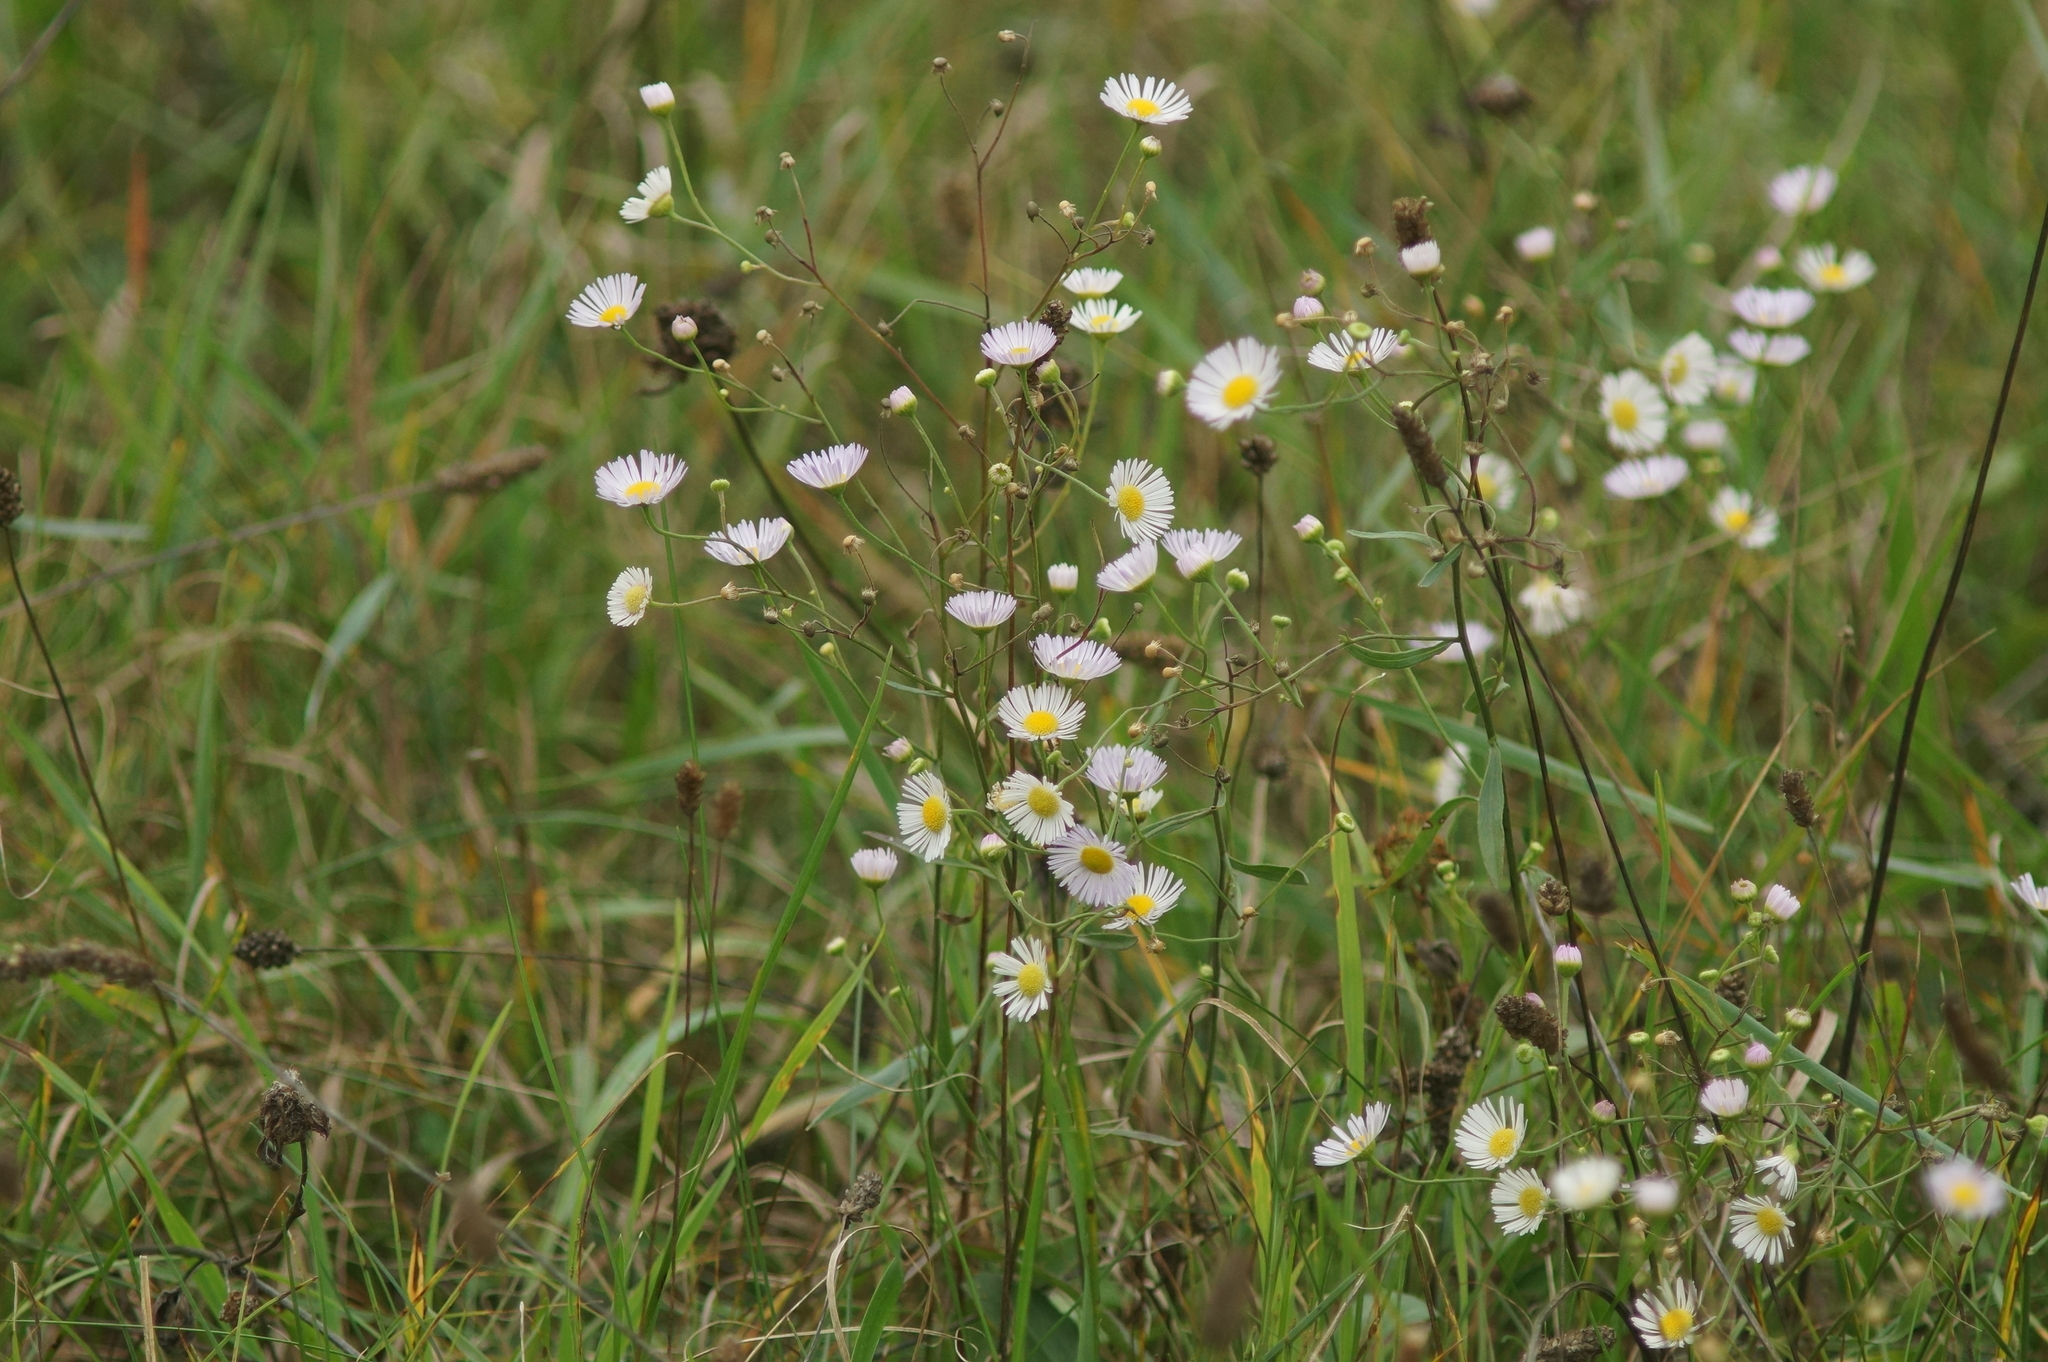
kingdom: Plantae
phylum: Tracheophyta
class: Magnoliopsida
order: Asterales
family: Asteraceae
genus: Erigeron
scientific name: Erigeron annuus
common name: Tall fleabane
